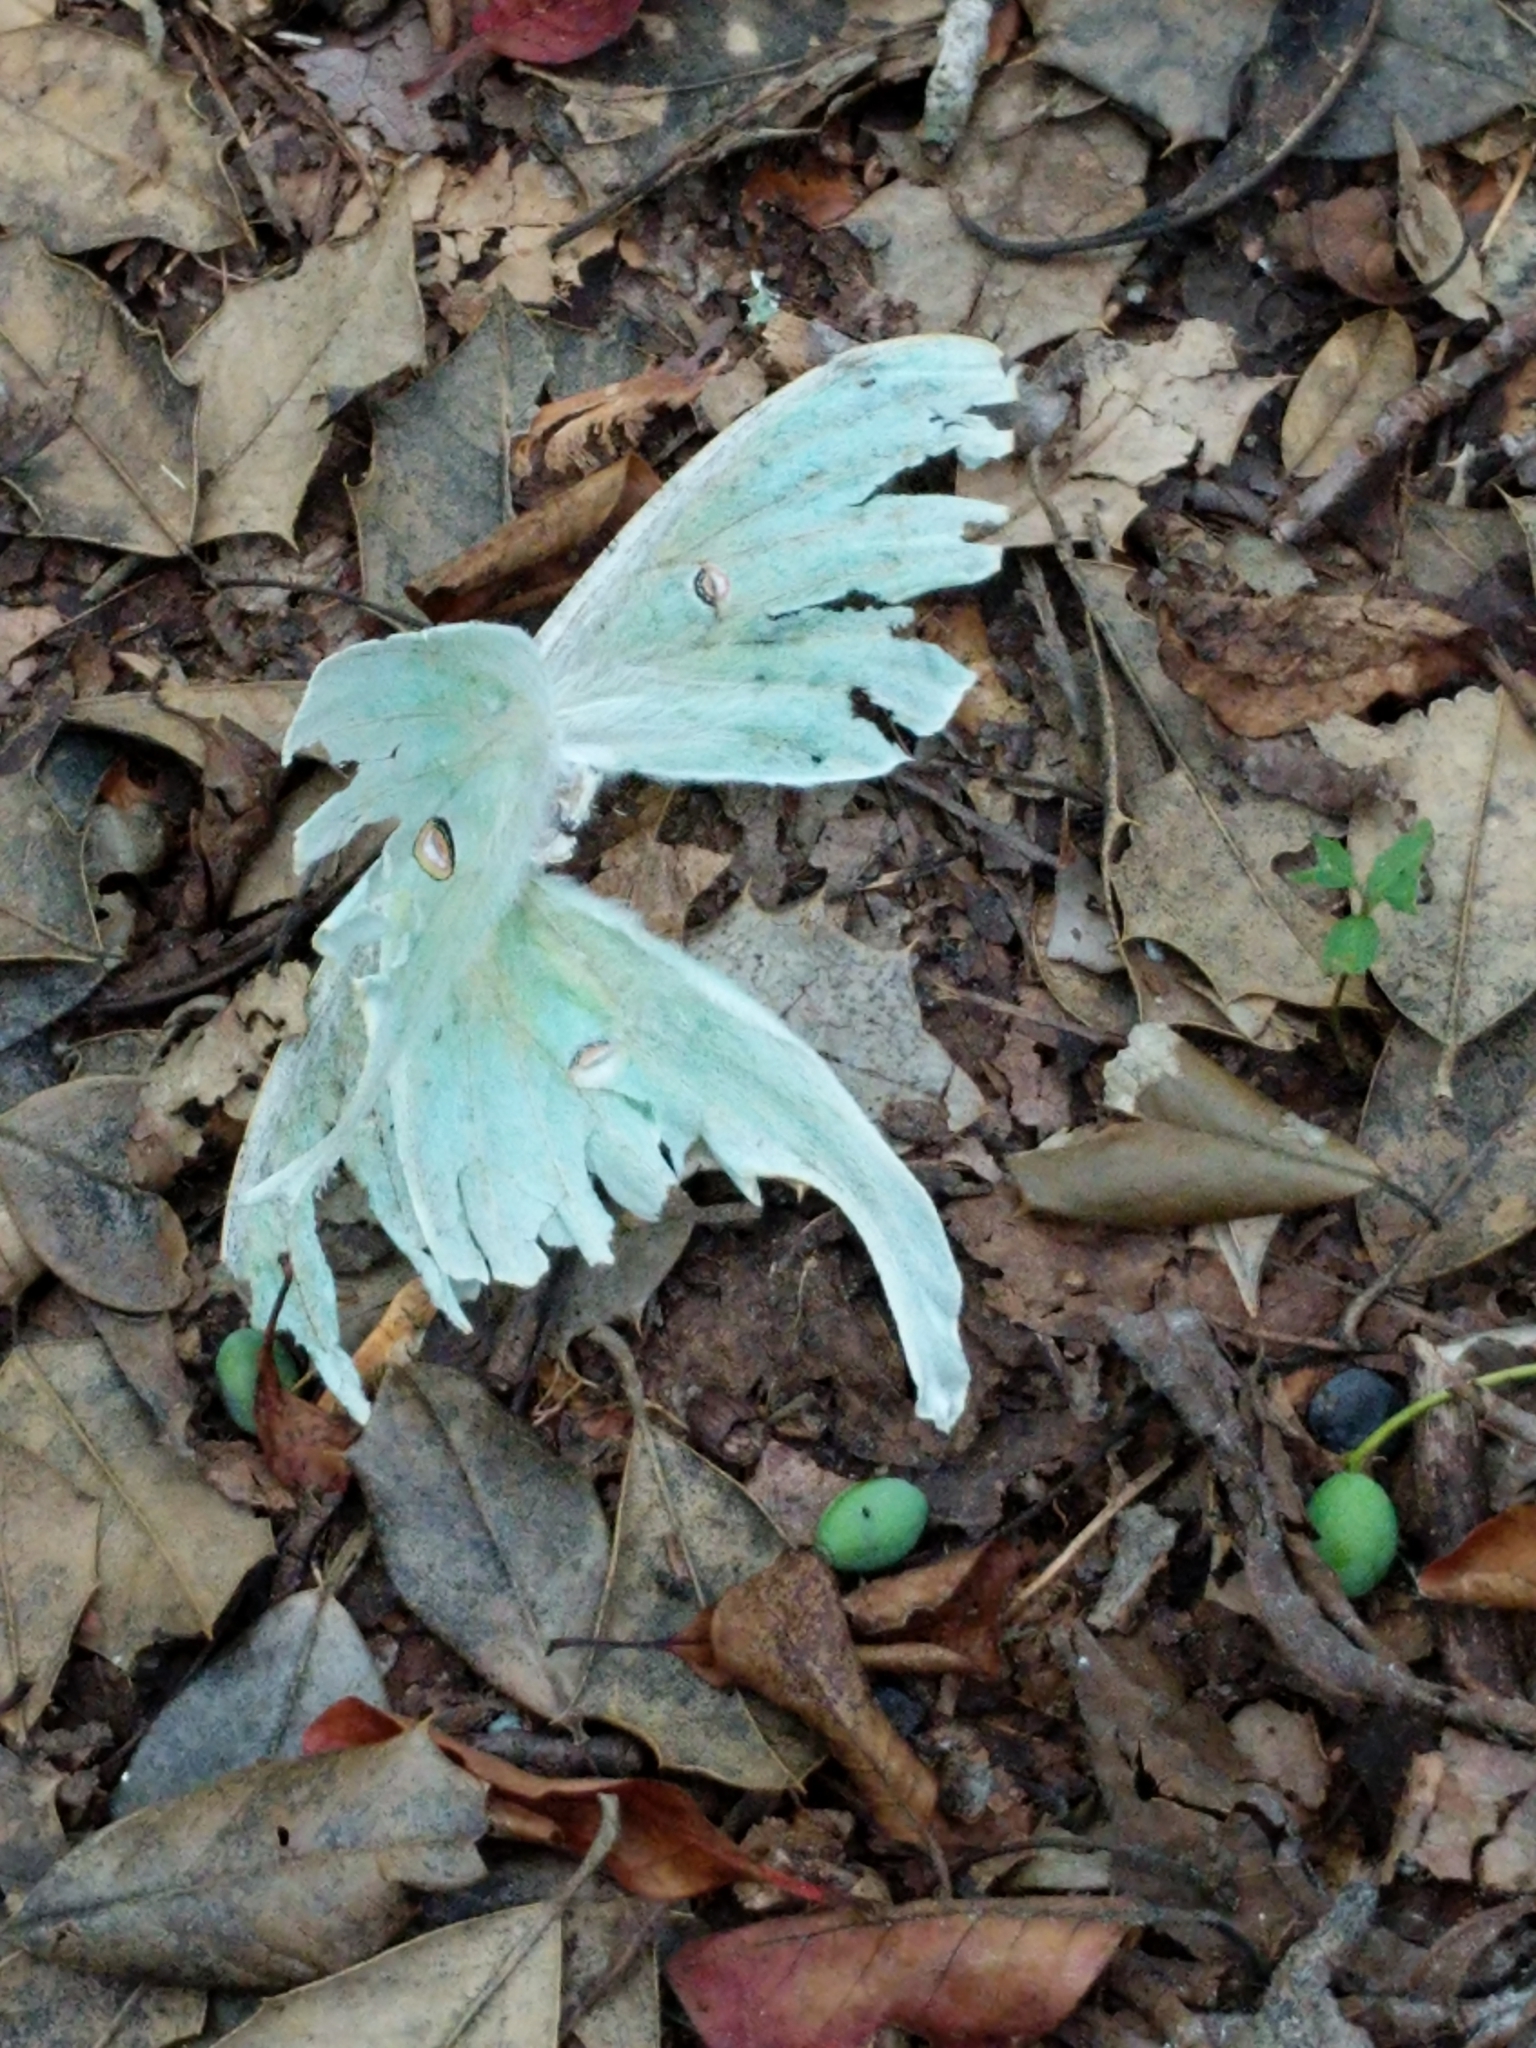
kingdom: Animalia
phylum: Arthropoda
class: Insecta
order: Lepidoptera
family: Saturniidae
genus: Actias
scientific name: Actias luna
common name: Luna moth
